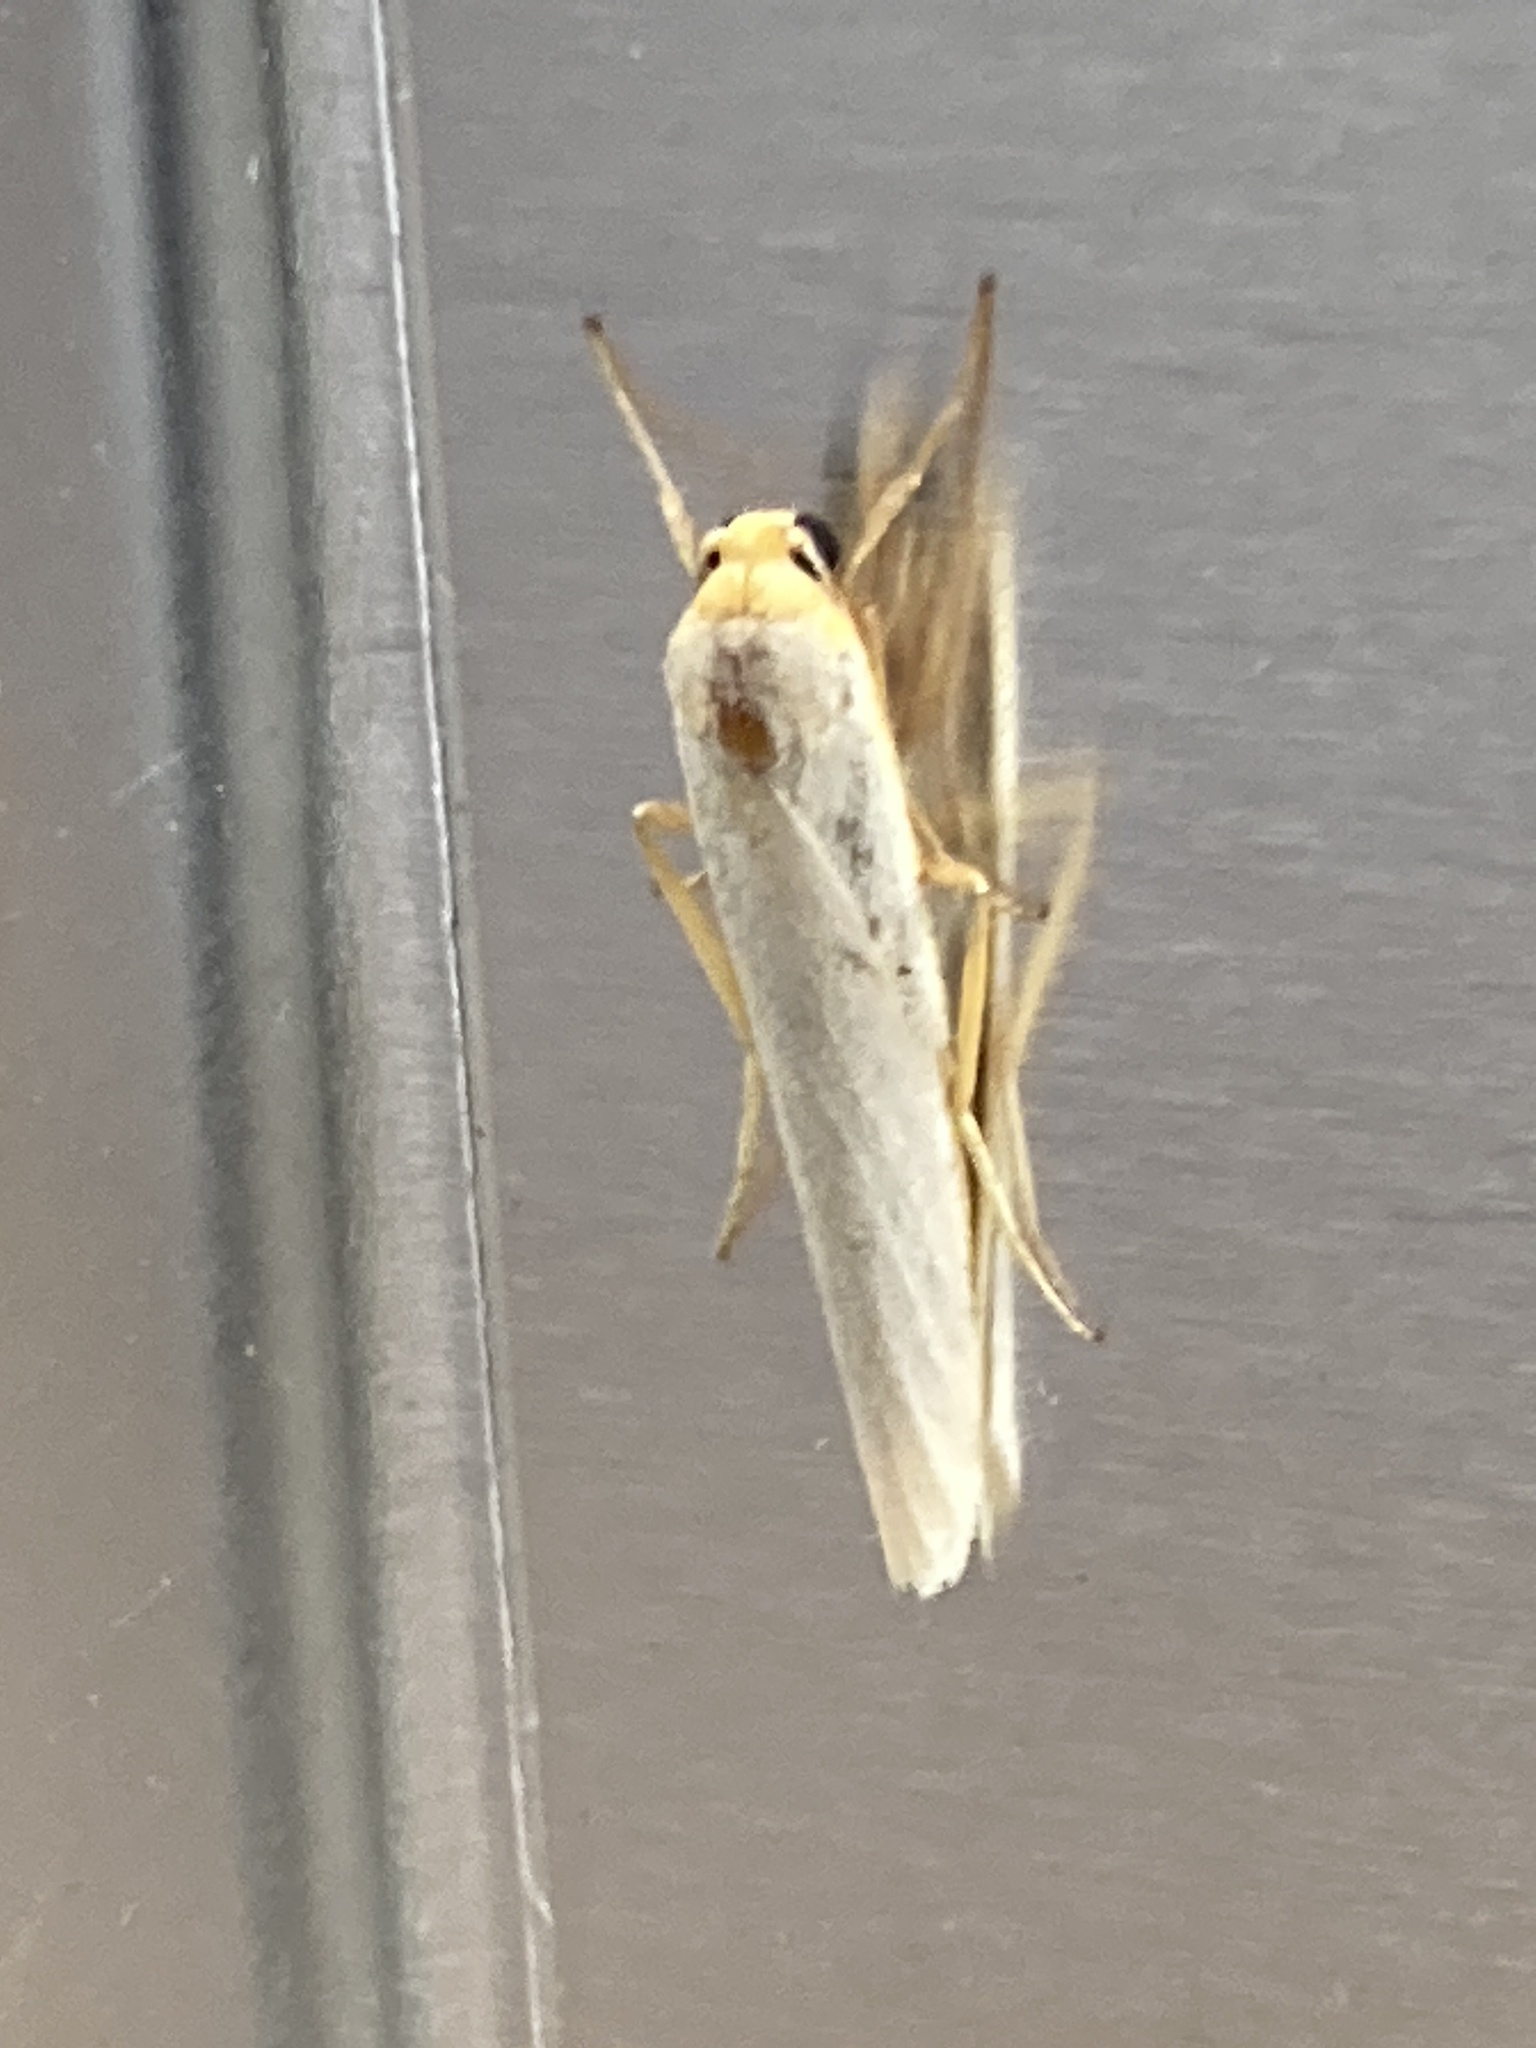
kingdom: Animalia
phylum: Arthropoda
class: Insecta
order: Lepidoptera
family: Erebidae
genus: Eilema
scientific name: Eilema caniola
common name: Hoary footman
